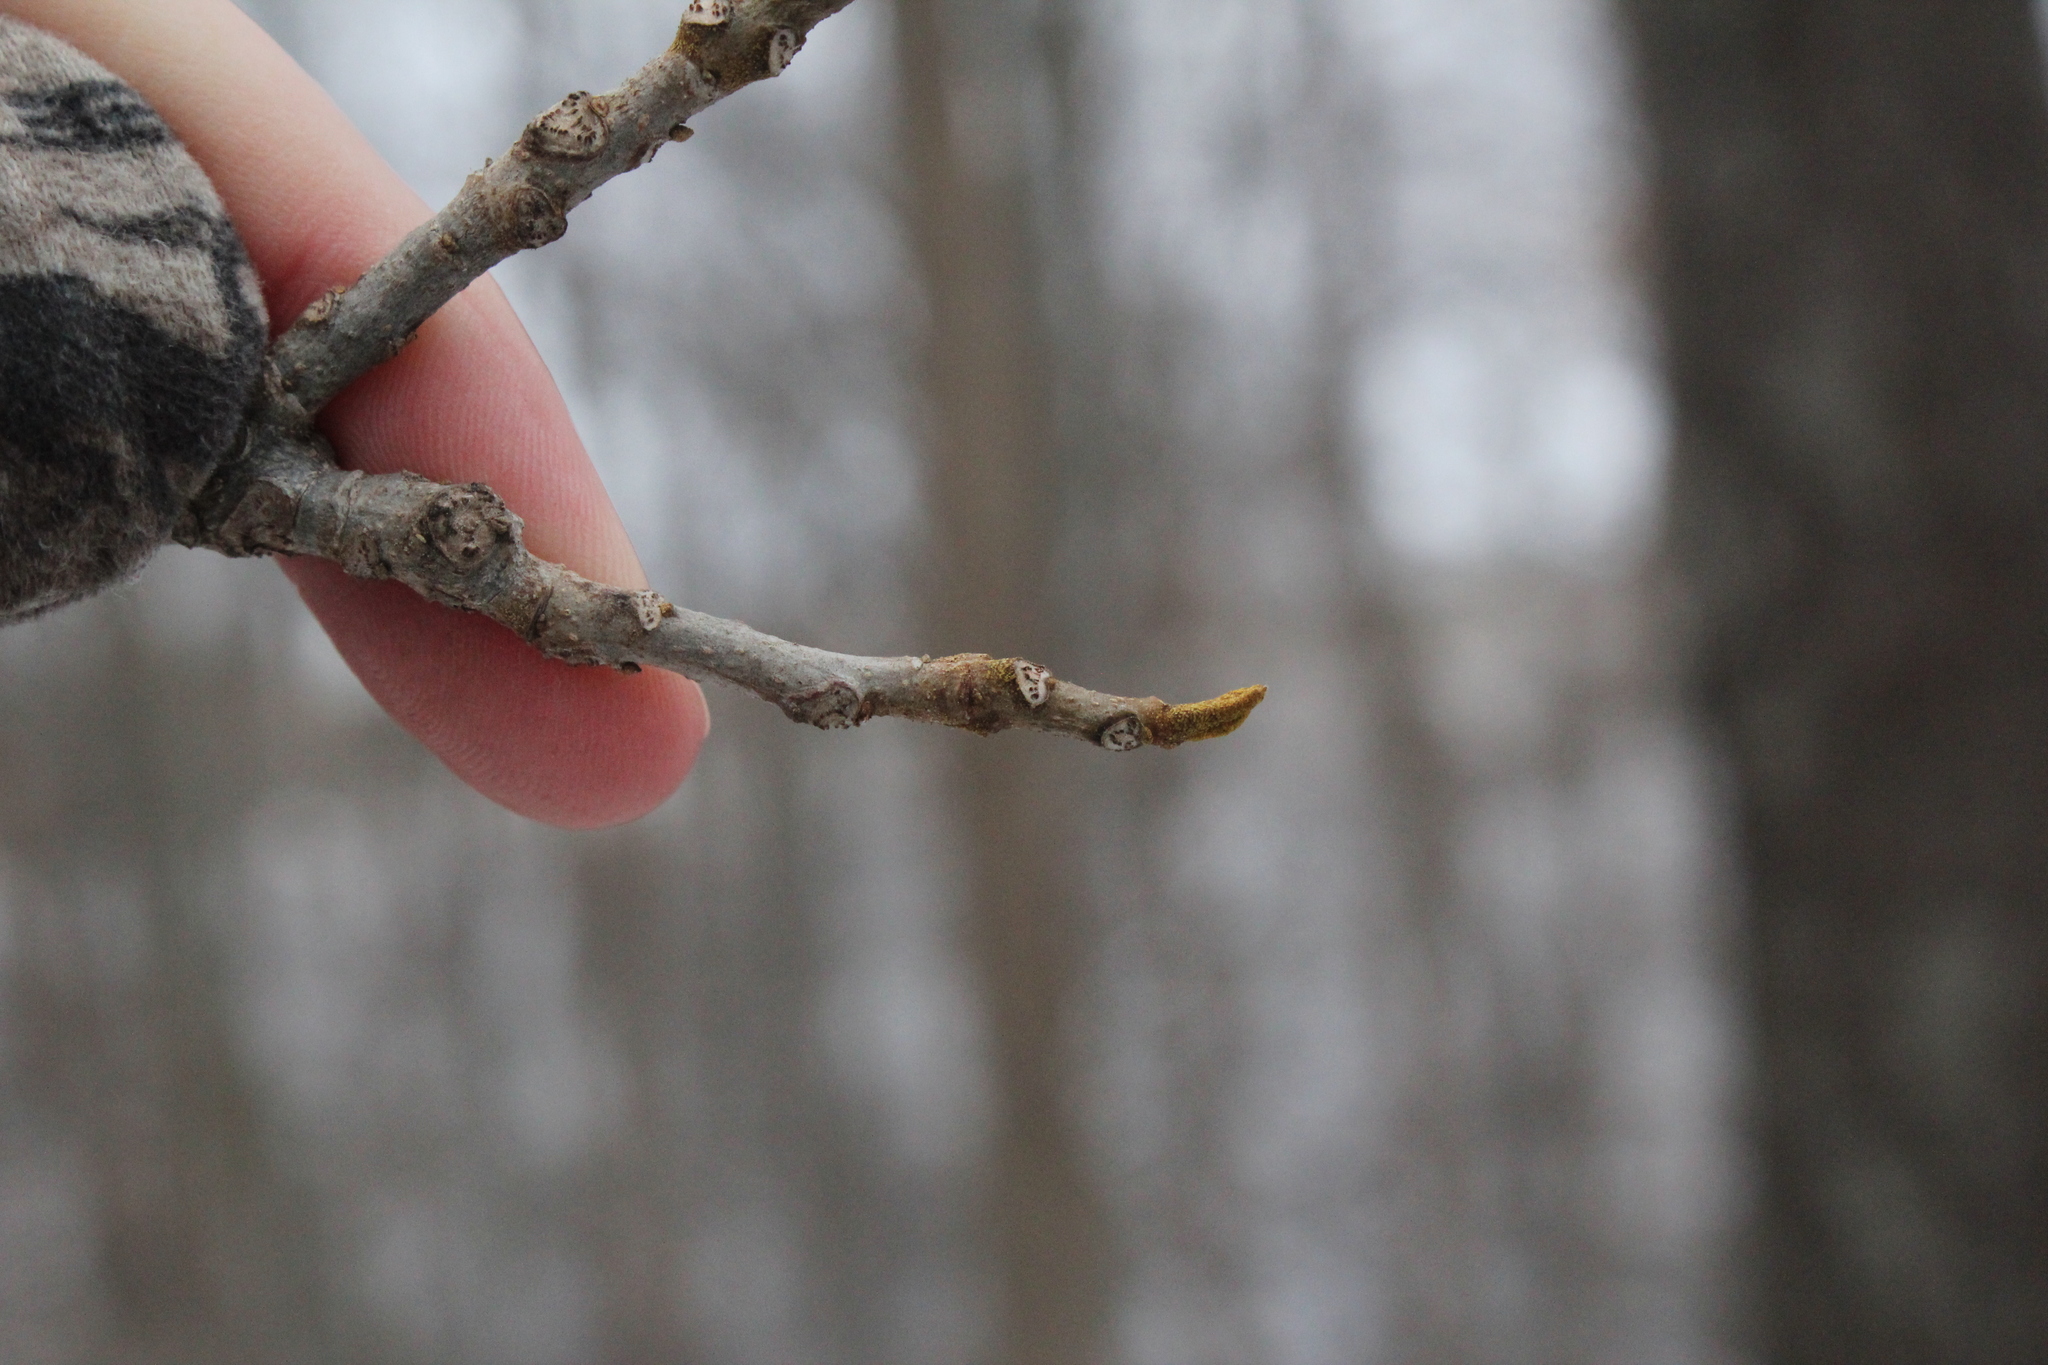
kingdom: Plantae
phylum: Tracheophyta
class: Magnoliopsida
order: Fagales
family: Juglandaceae
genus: Carya
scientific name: Carya cordiformis
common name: Bitternut hickory
